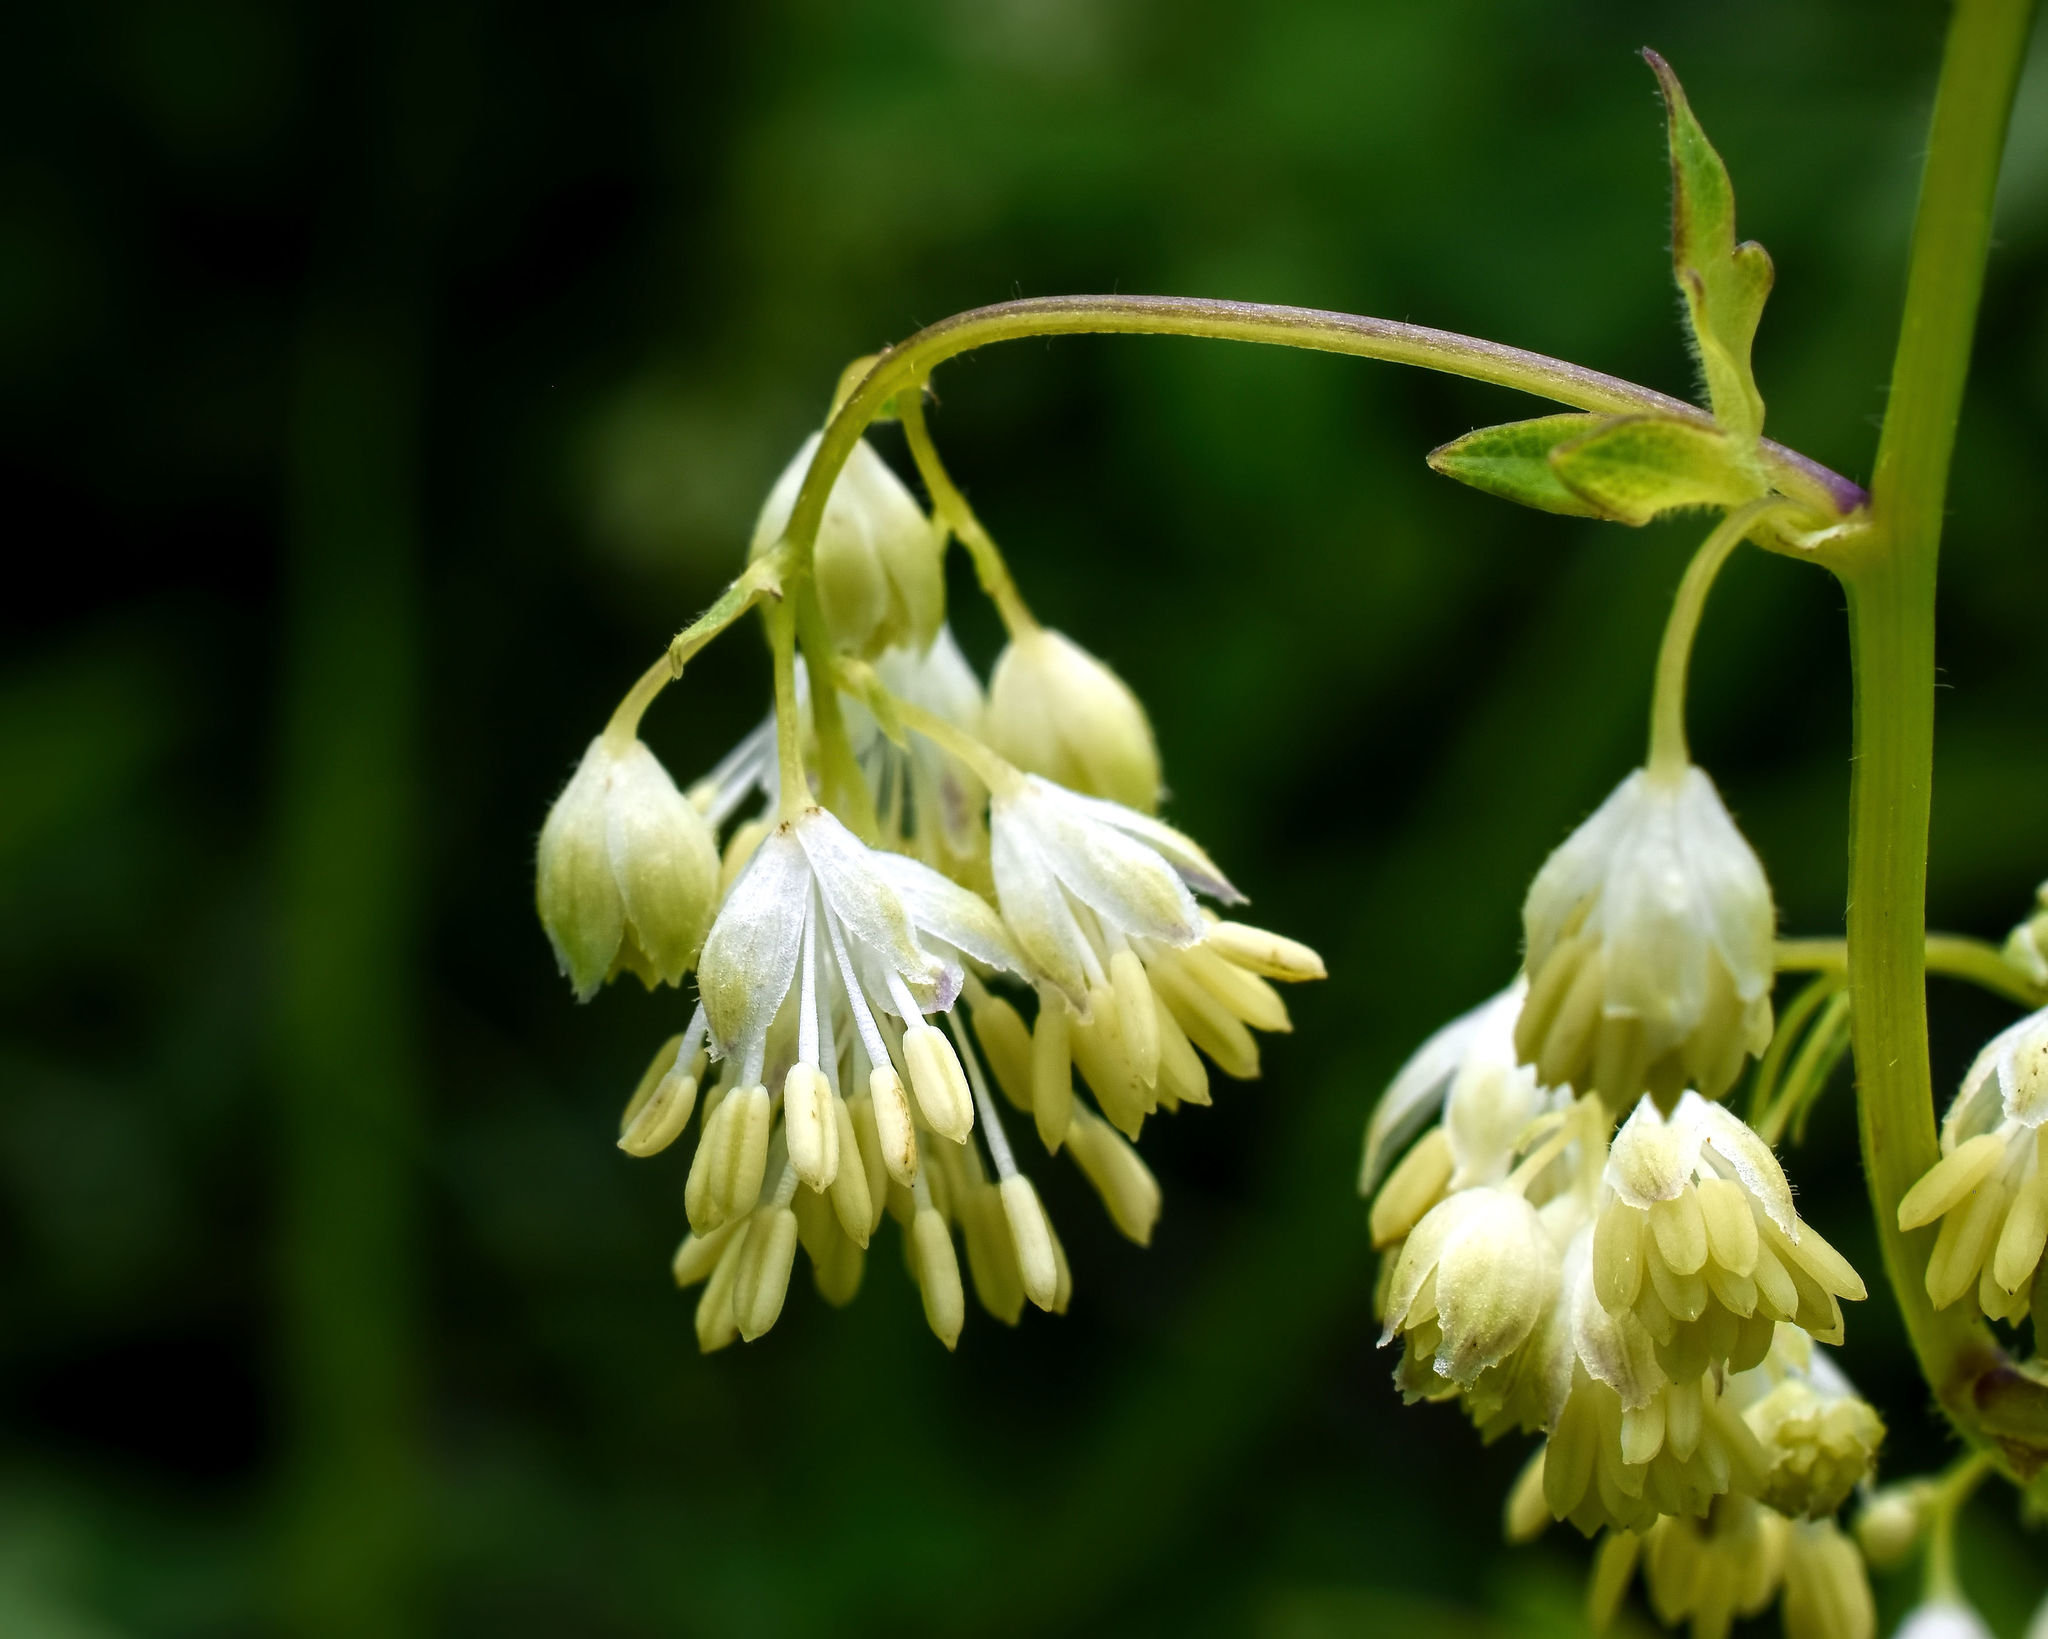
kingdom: Plantae
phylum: Tracheophyta
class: Magnoliopsida
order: Ranunculales
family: Ranunculaceae
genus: Thalictrum
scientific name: Thalictrum dasycarpum
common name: Purple meadow-rue
